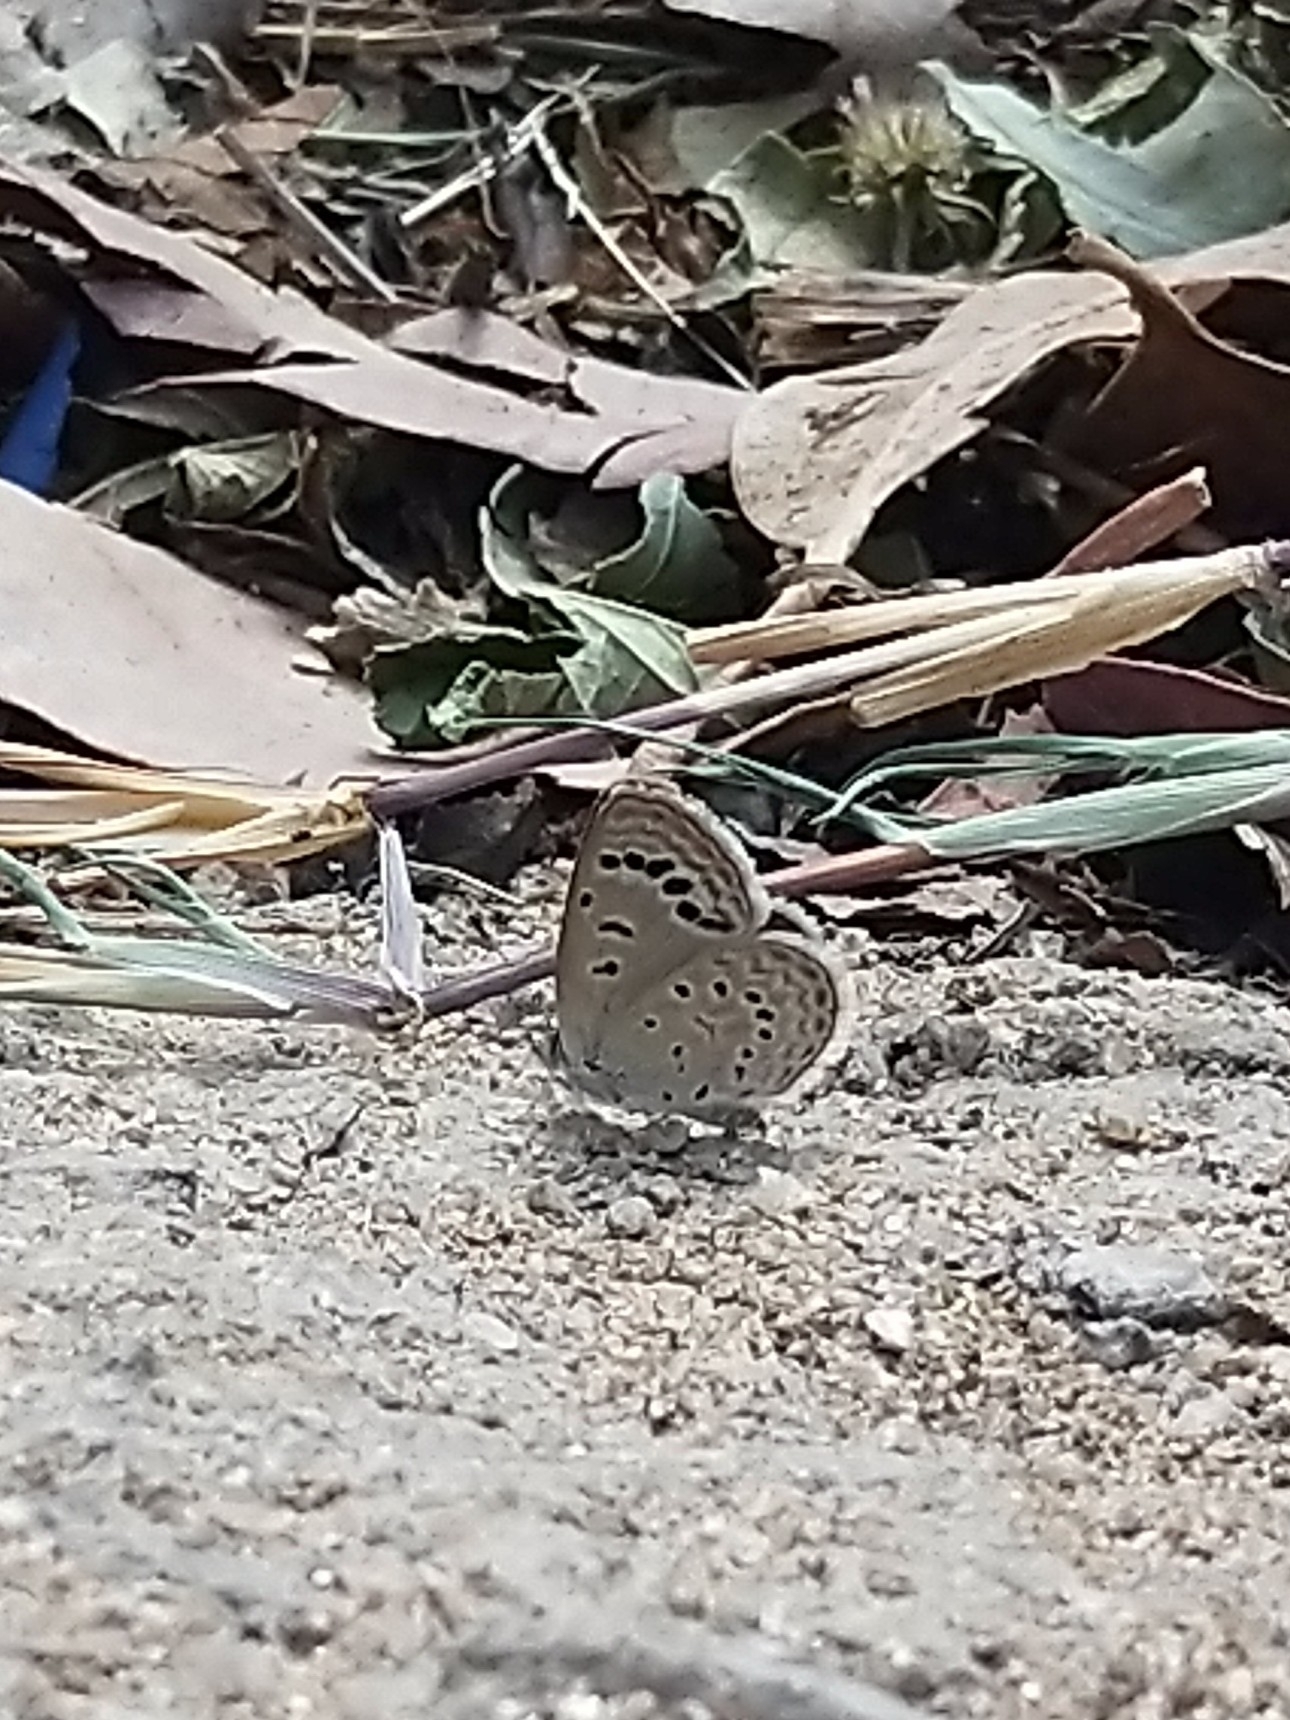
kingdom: Animalia
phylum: Arthropoda
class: Insecta
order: Lepidoptera
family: Lycaenidae
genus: Zizeeria
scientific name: Zizeeria karsandra
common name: Dark grass blue
